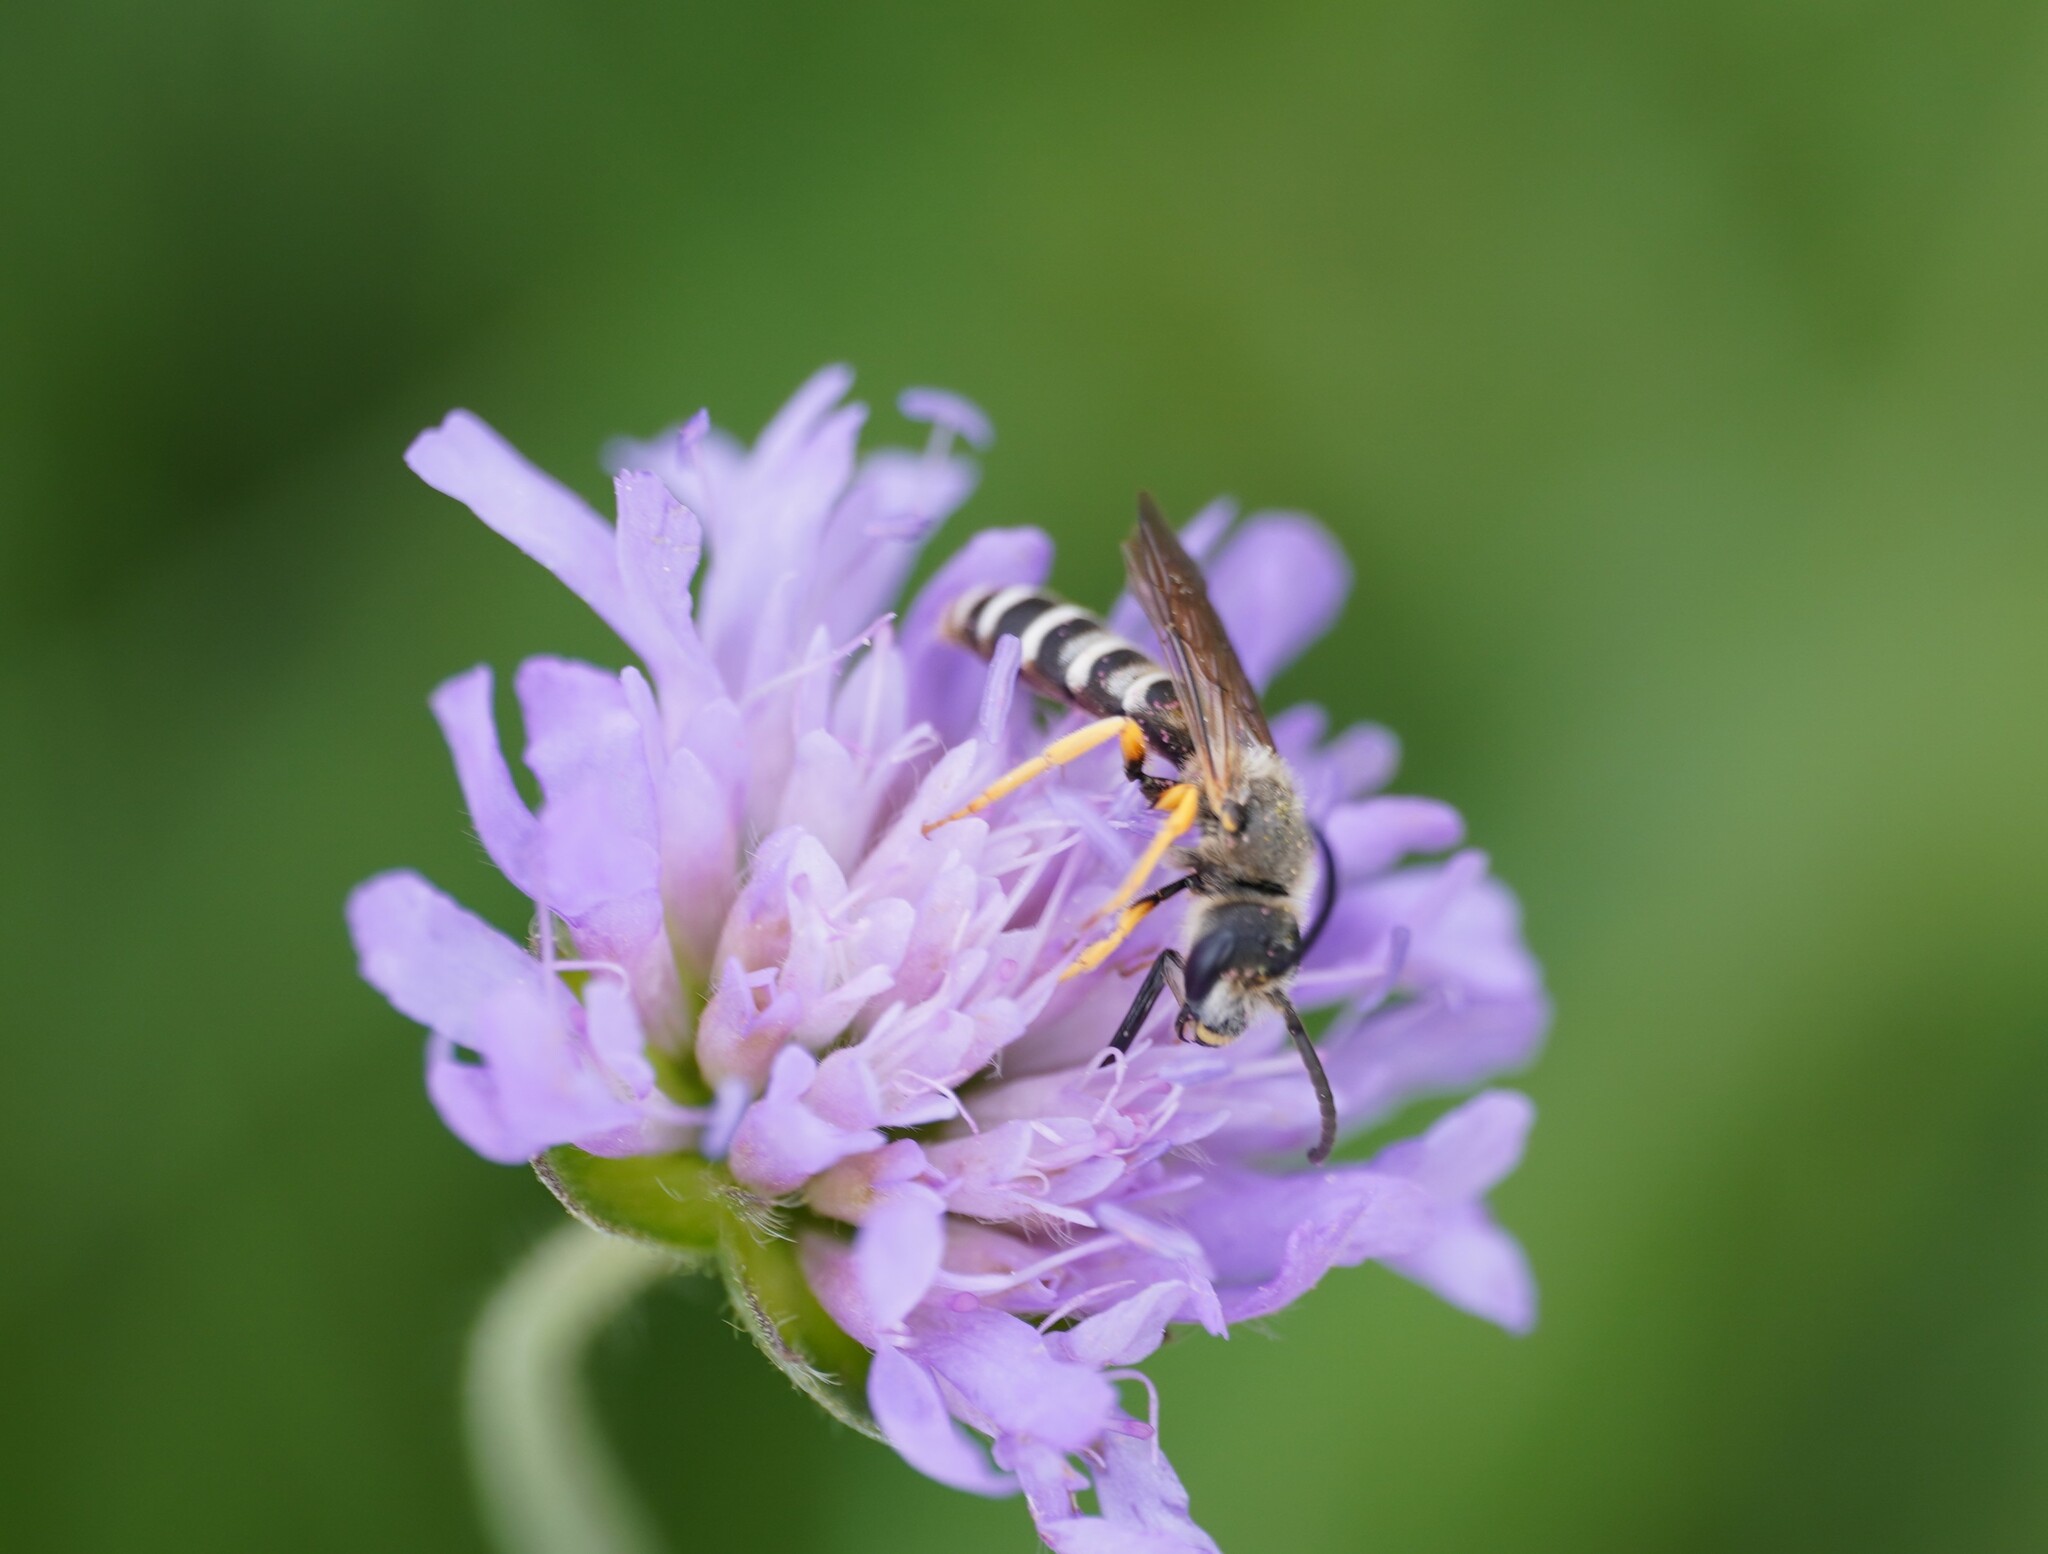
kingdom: Animalia
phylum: Arthropoda
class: Insecta
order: Hymenoptera
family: Halictidae
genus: Halictus
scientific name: Halictus scabiosae
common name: Great banded furrow bee
